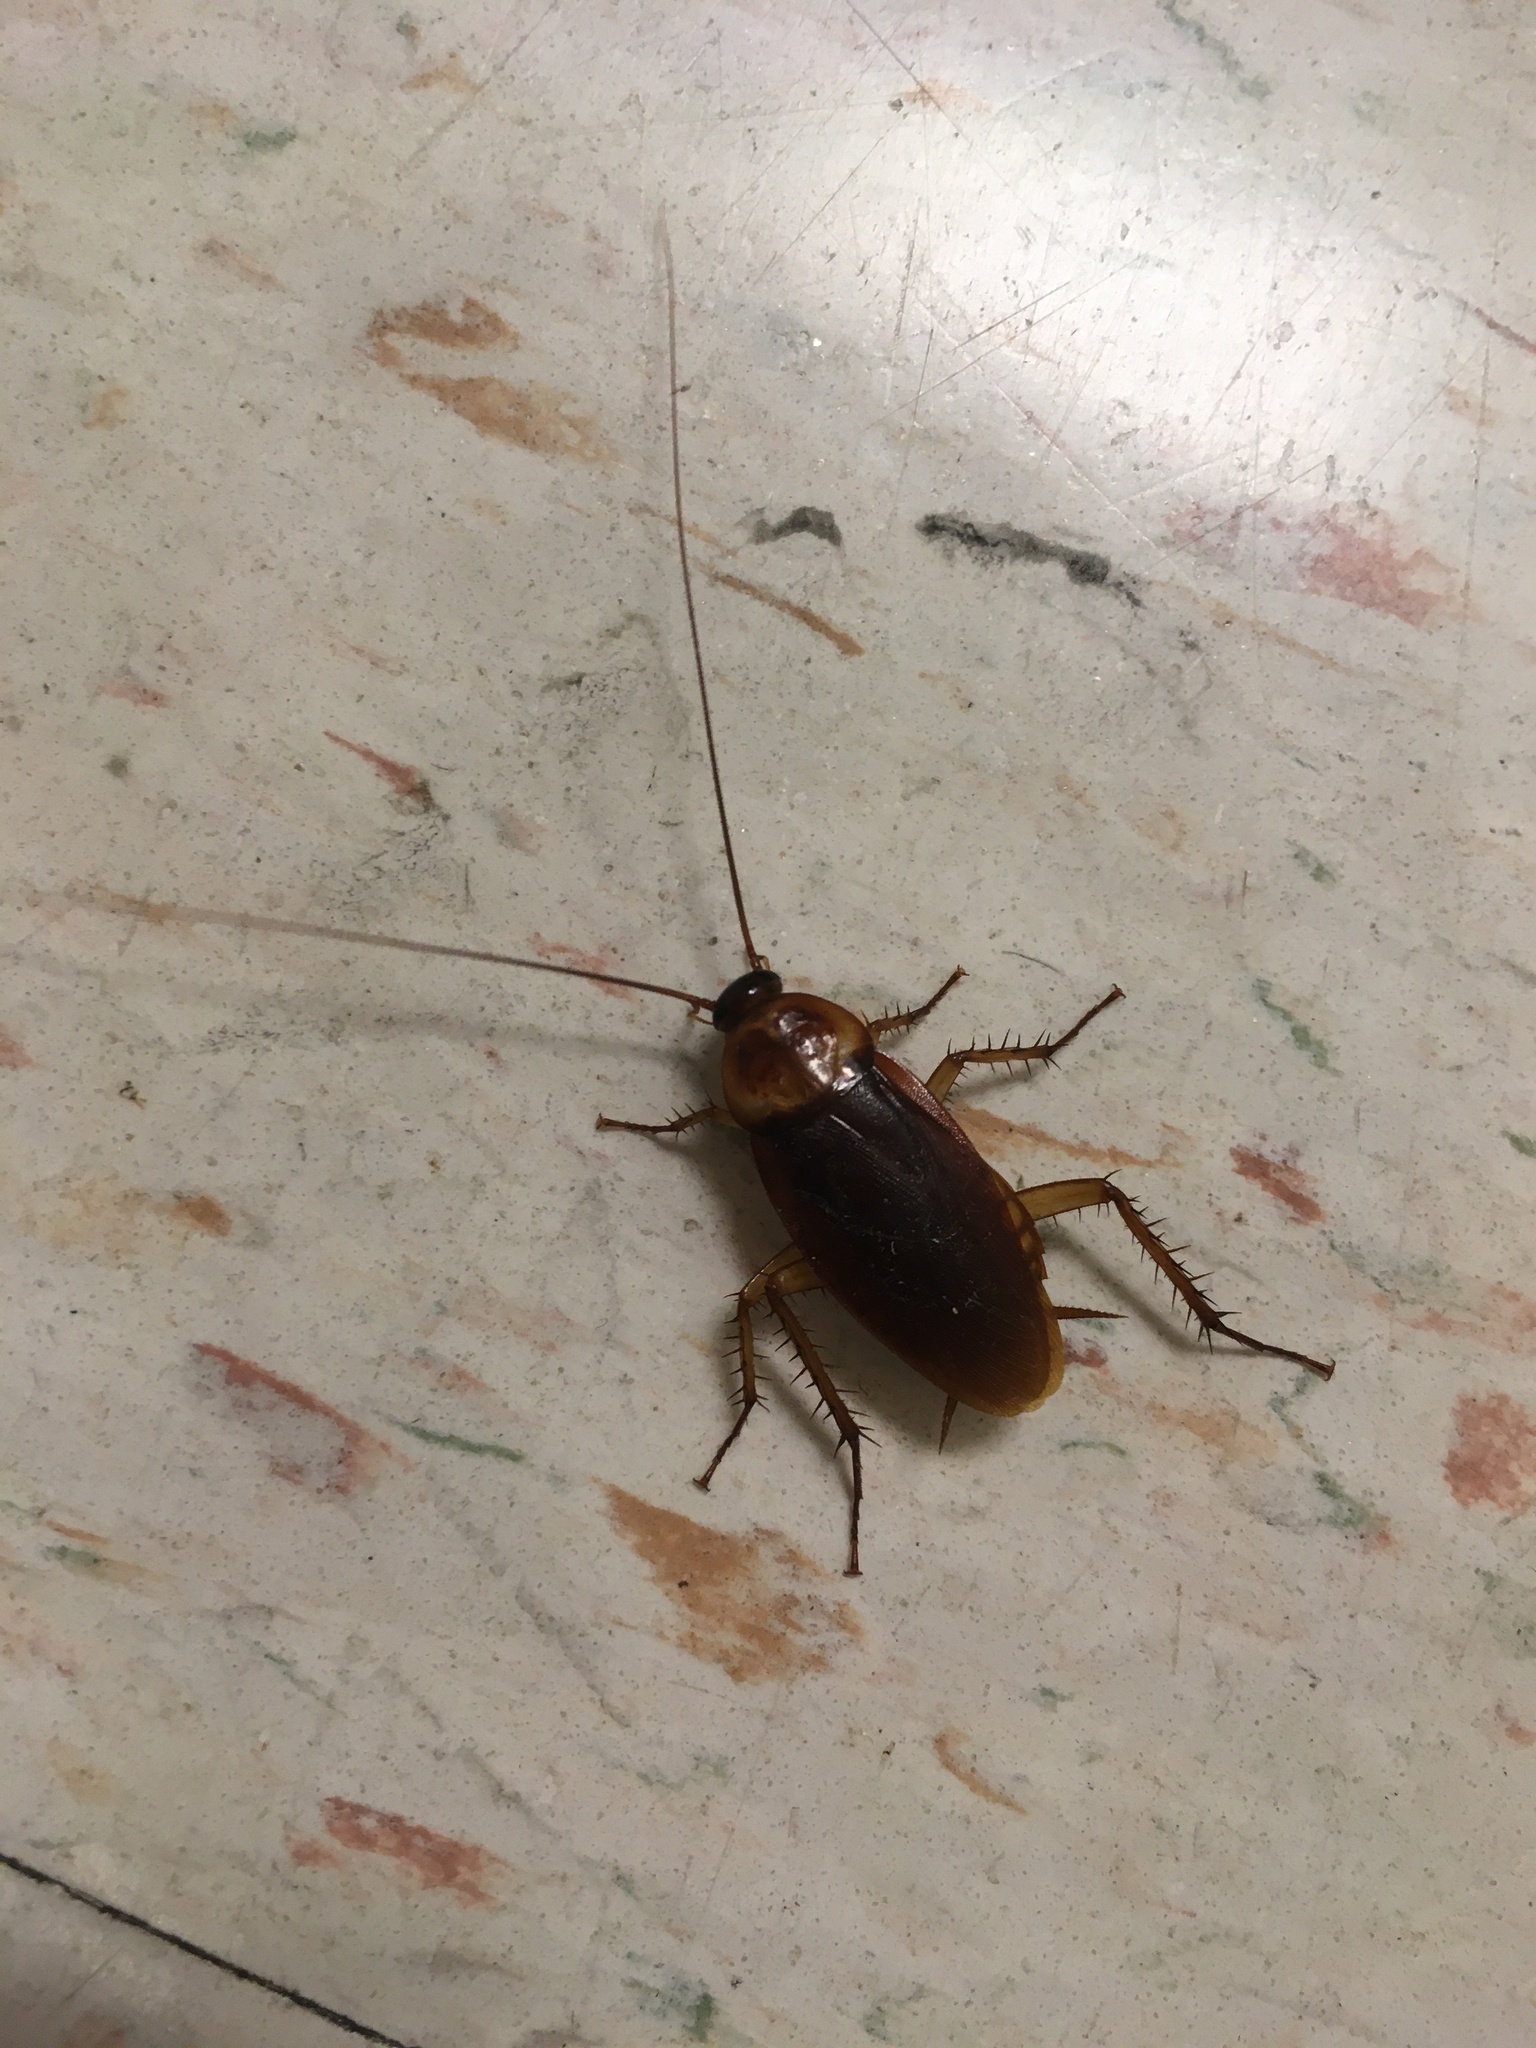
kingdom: Animalia
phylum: Arthropoda
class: Insecta
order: Blattodea
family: Blattidae
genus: Periplaneta
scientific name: Periplaneta americana
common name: American cockroach
